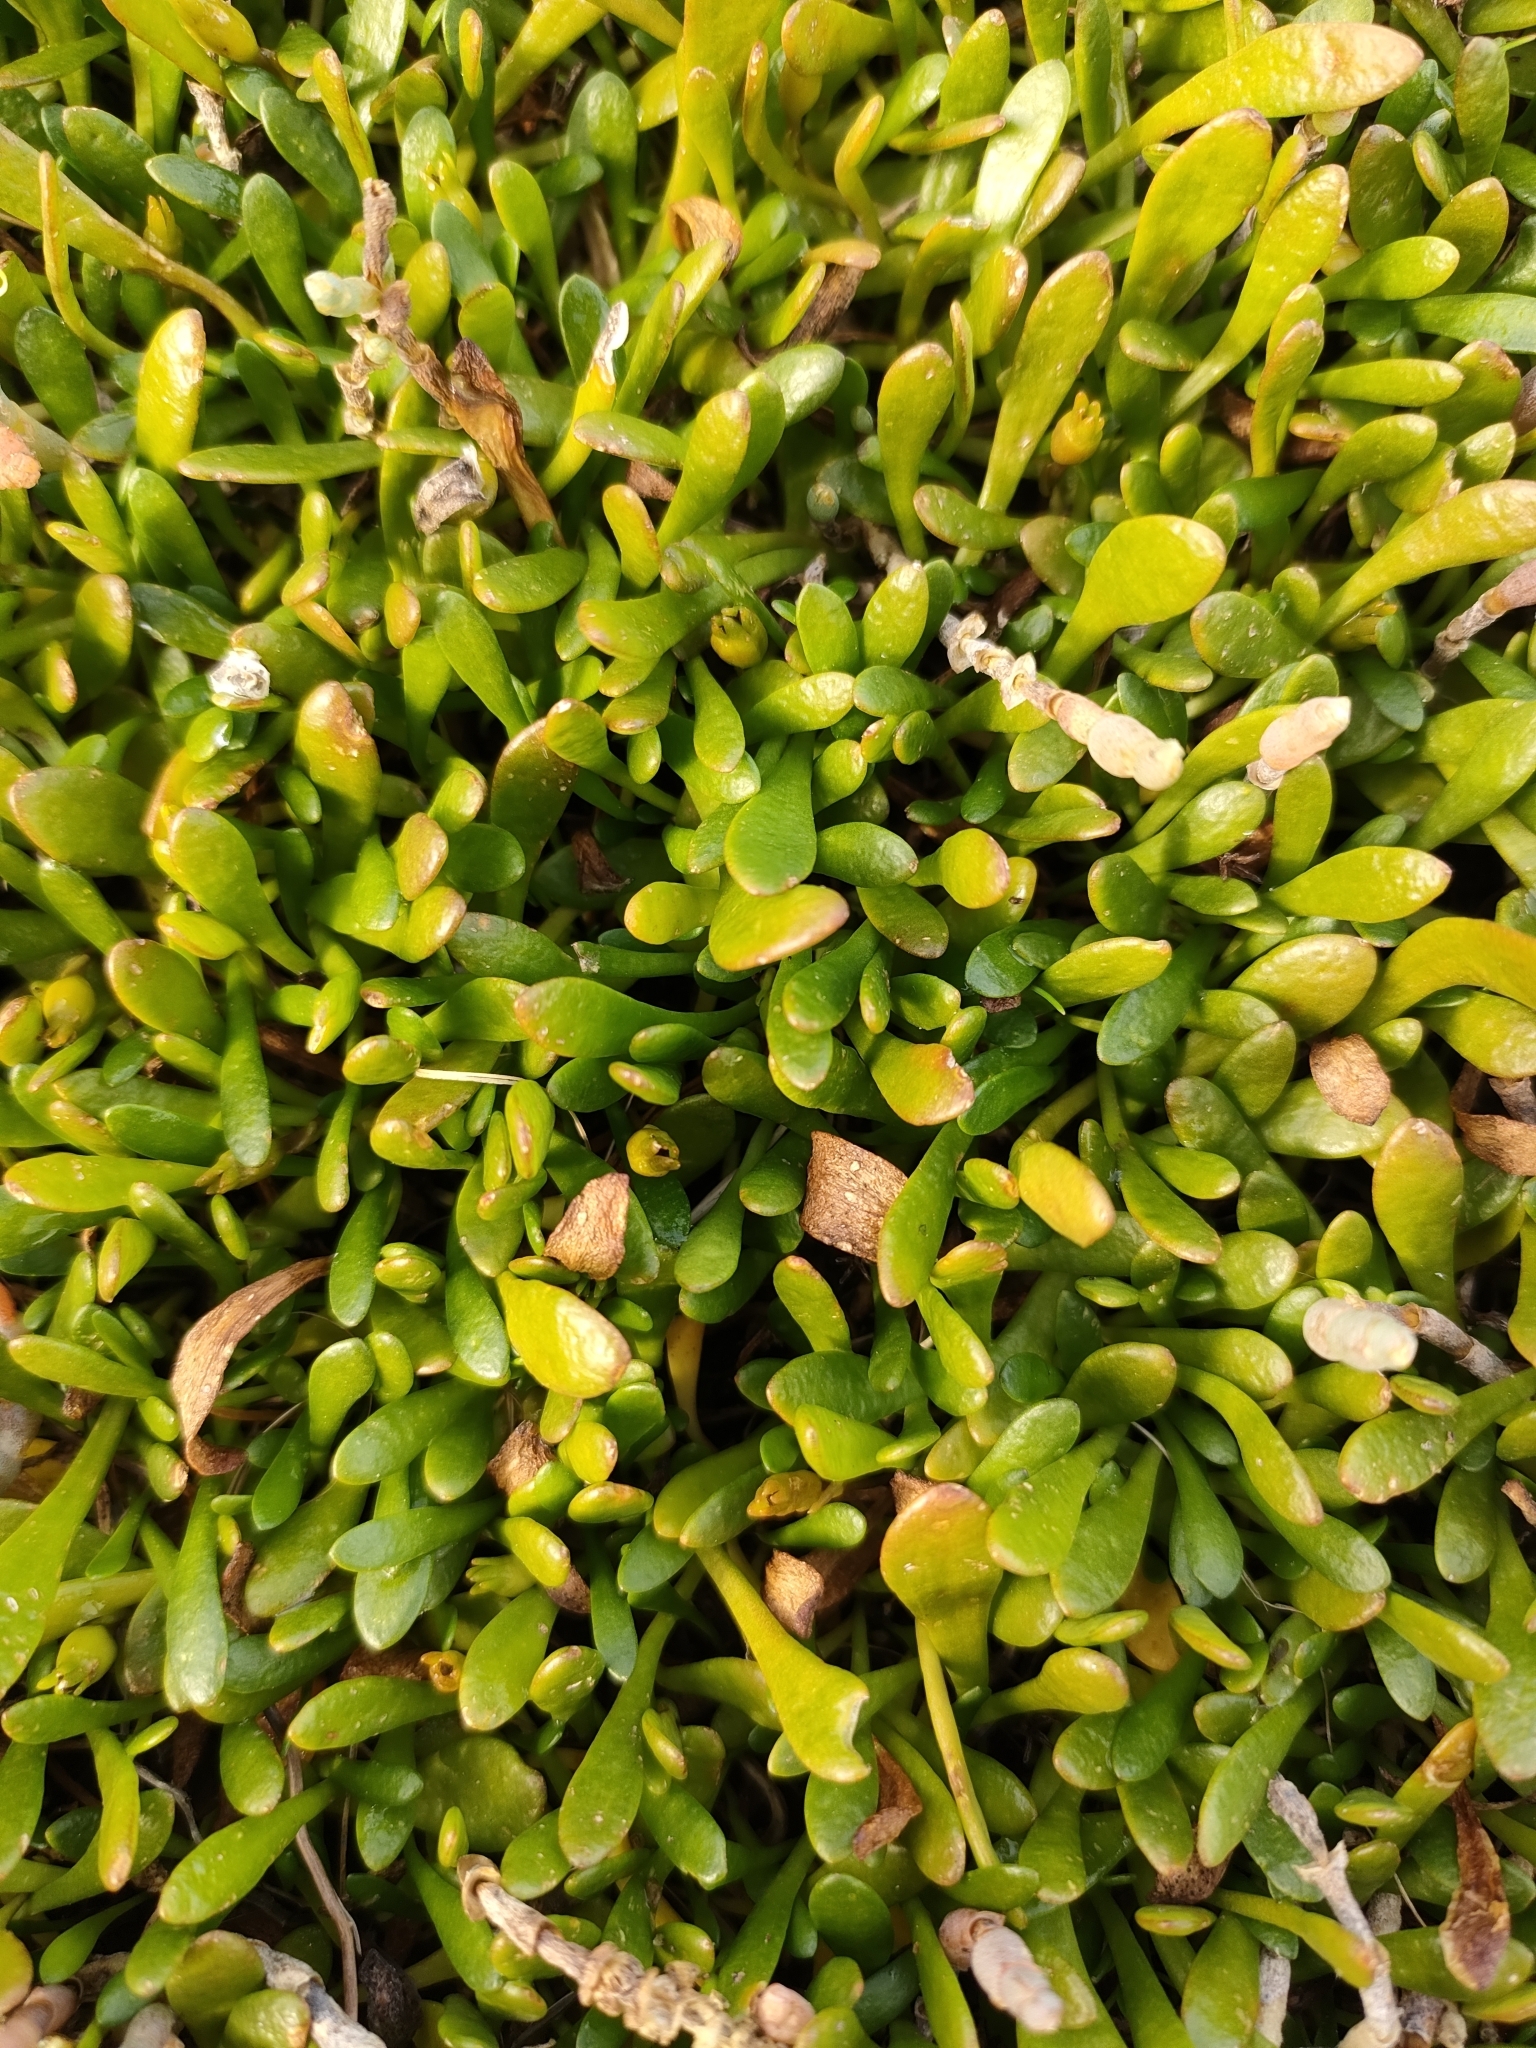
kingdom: Plantae
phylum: Tracheophyta
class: Magnoliopsida
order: Asterales
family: Goodeniaceae
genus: Goodenia
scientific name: Goodenia radicans
